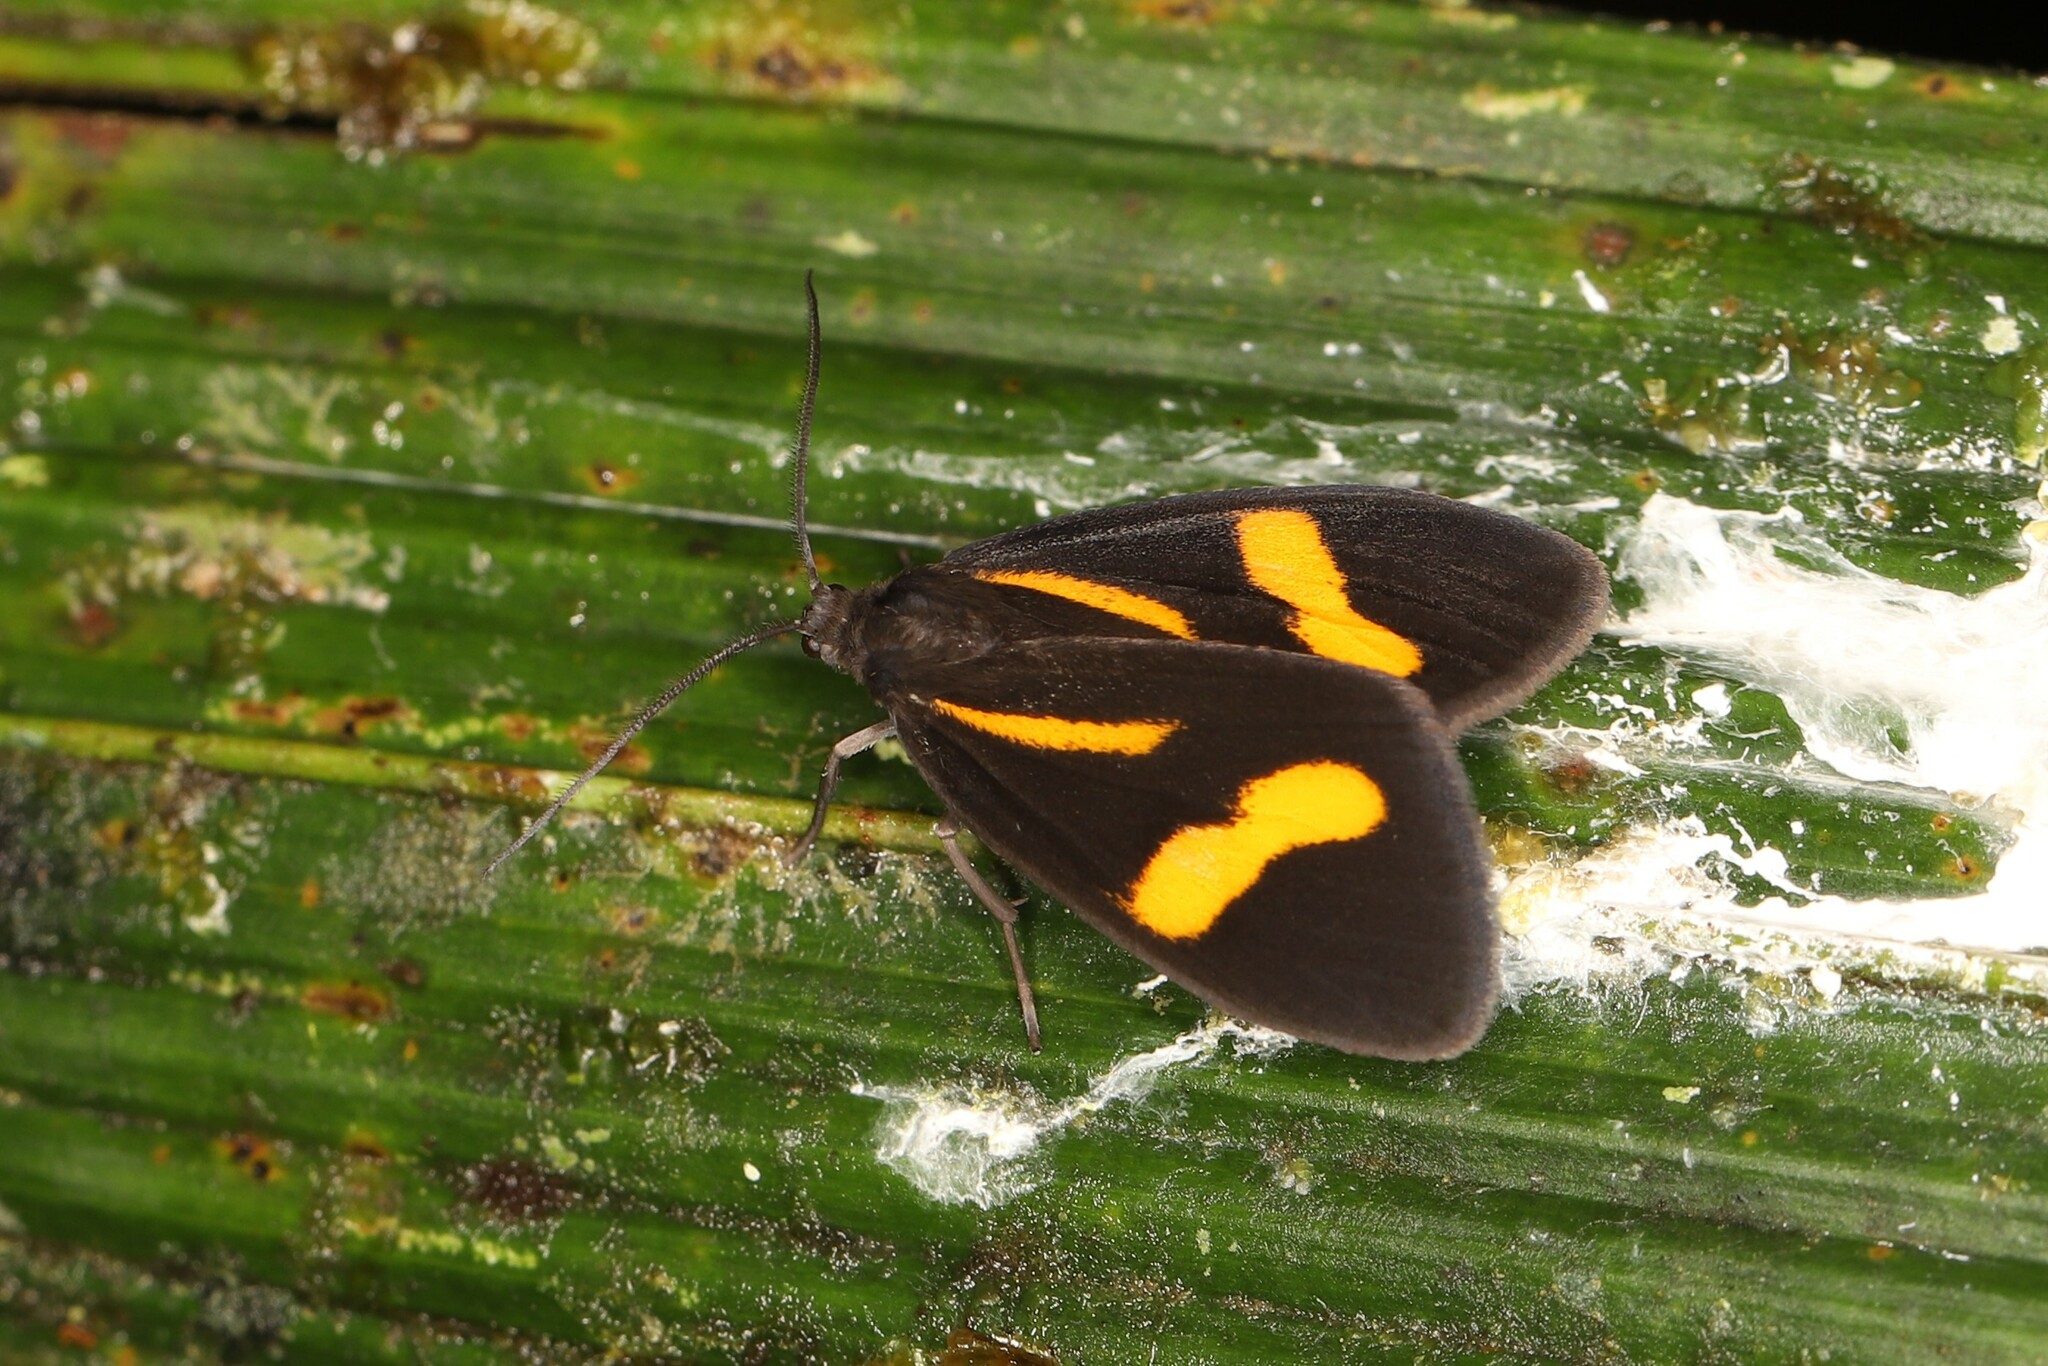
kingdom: Animalia
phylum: Arthropoda
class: Insecta
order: Lepidoptera
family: Notodontidae
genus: Stenoplastis
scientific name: Stenoplastis decorata
